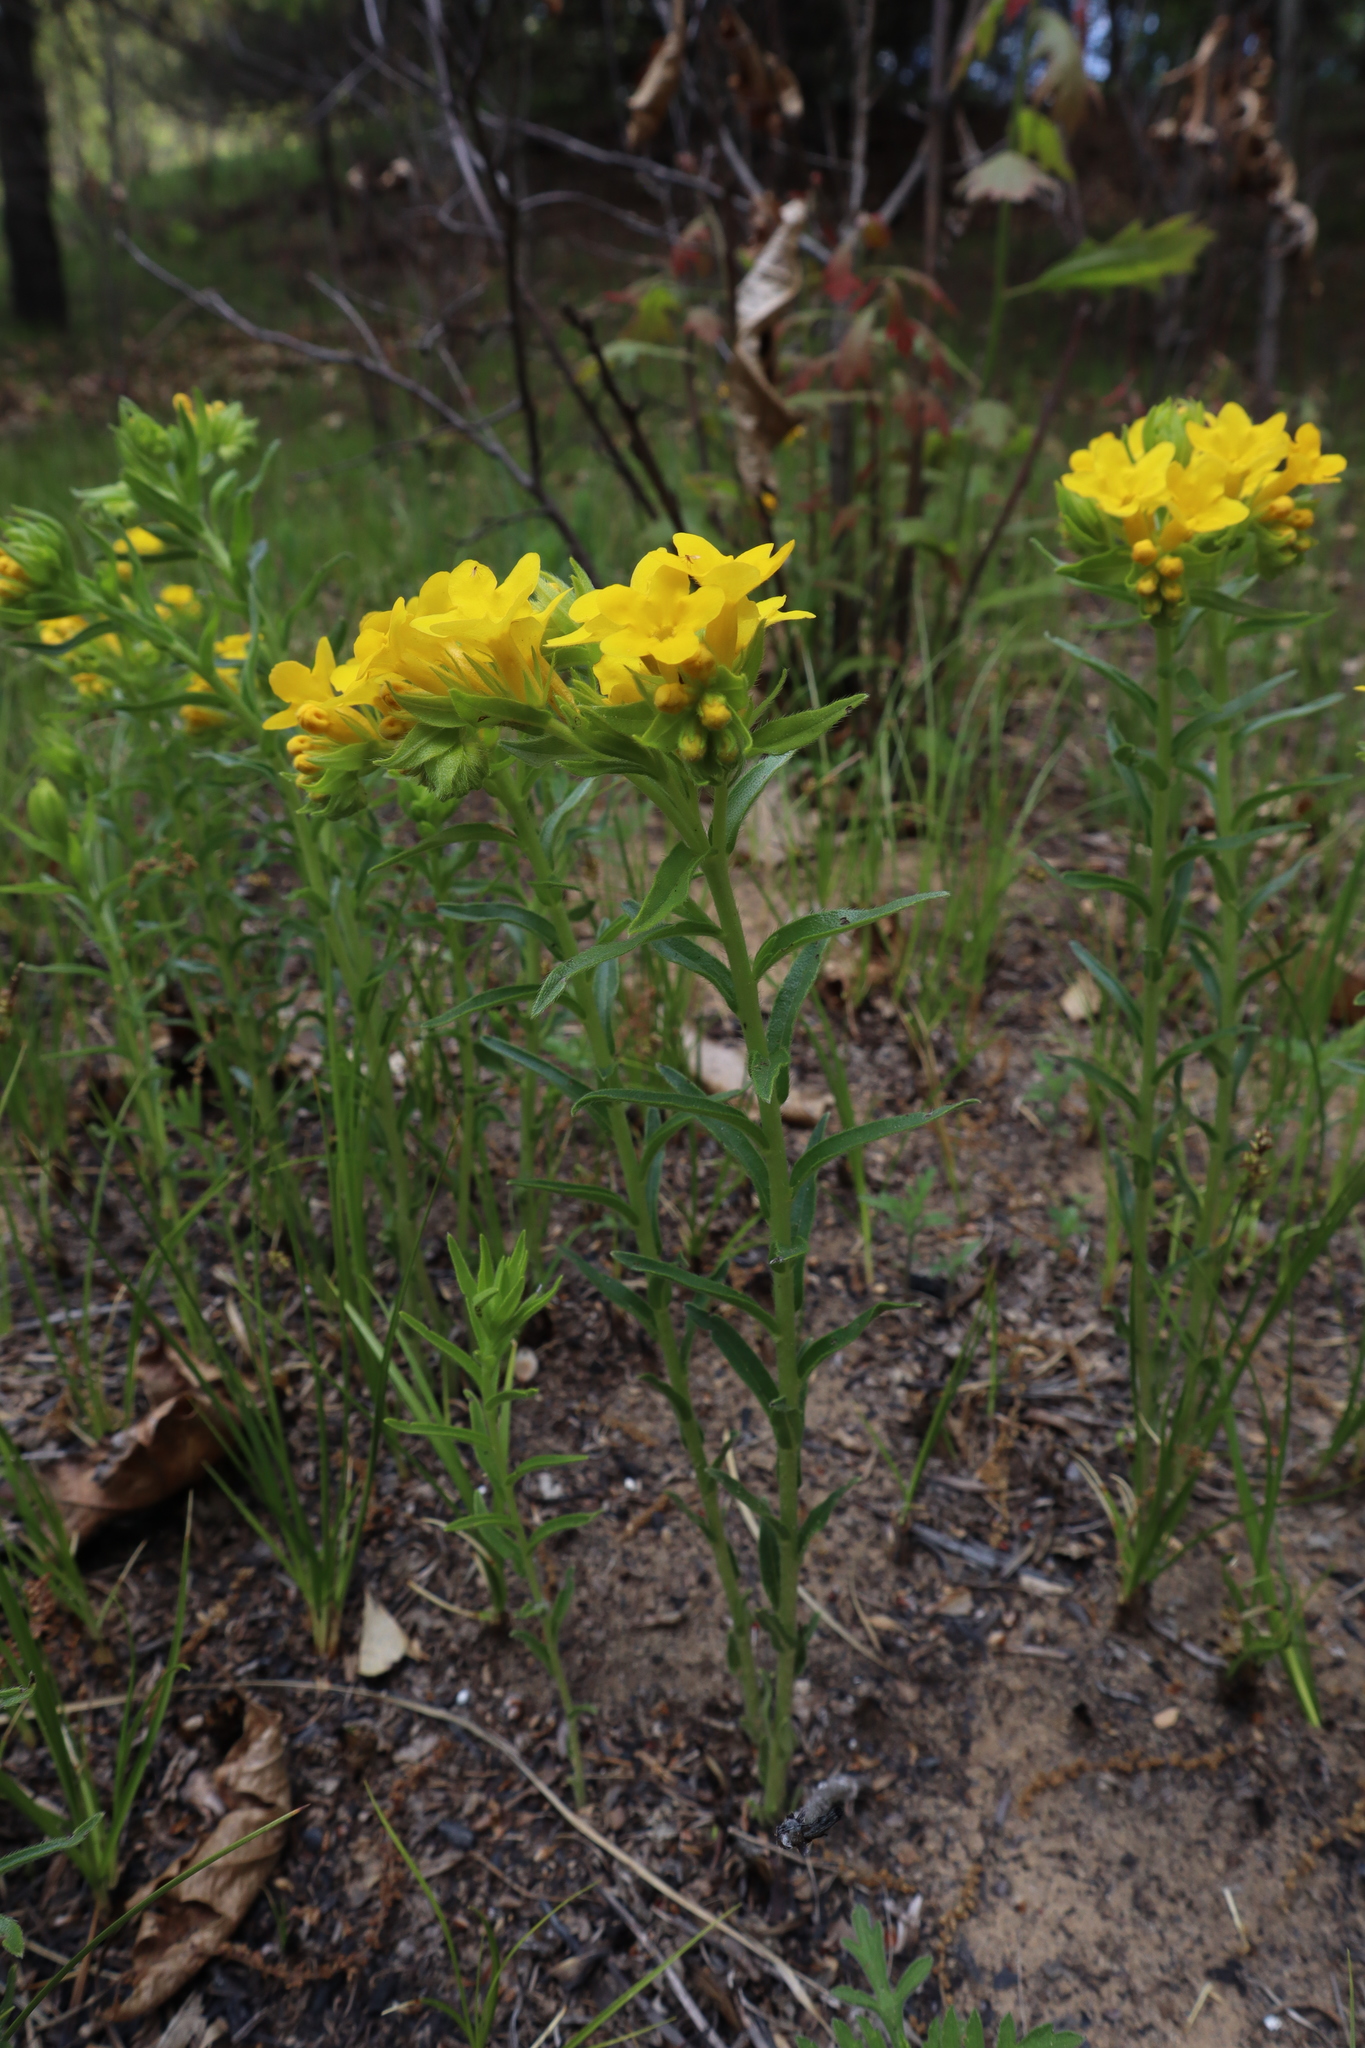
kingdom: Plantae
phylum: Tracheophyta
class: Magnoliopsida
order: Boraginales
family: Boraginaceae
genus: Lithospermum
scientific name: Lithospermum caroliniense
